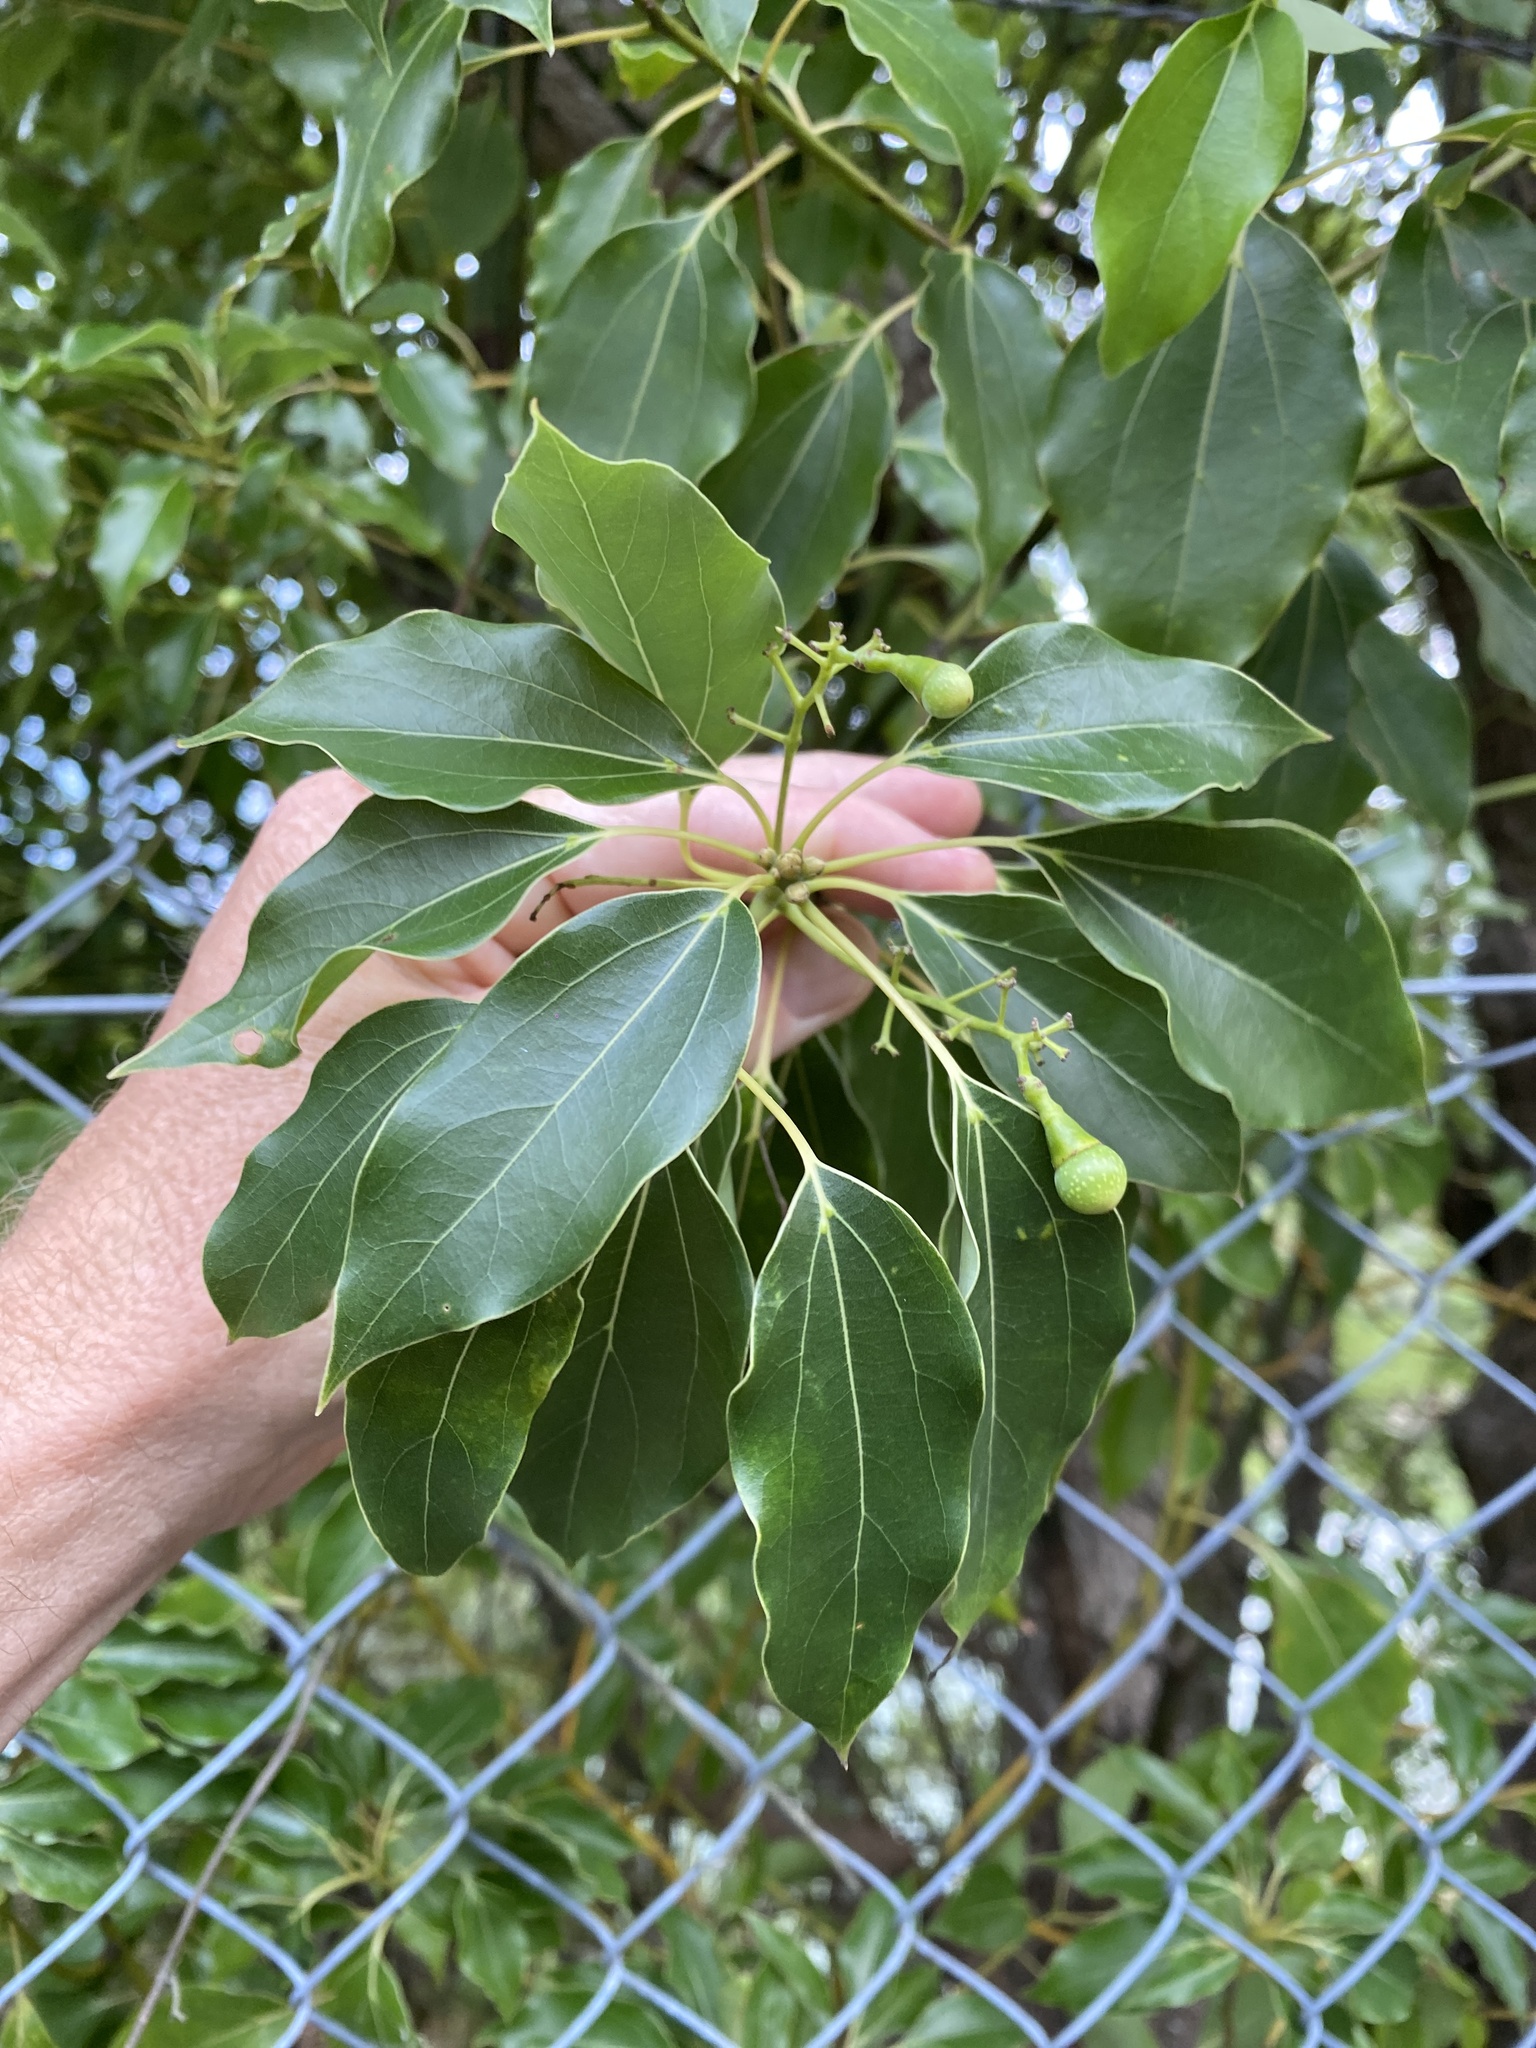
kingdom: Plantae
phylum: Tracheophyta
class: Magnoliopsida
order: Laurales
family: Lauraceae
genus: Cinnamomum
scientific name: Cinnamomum camphora
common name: Camphortree
